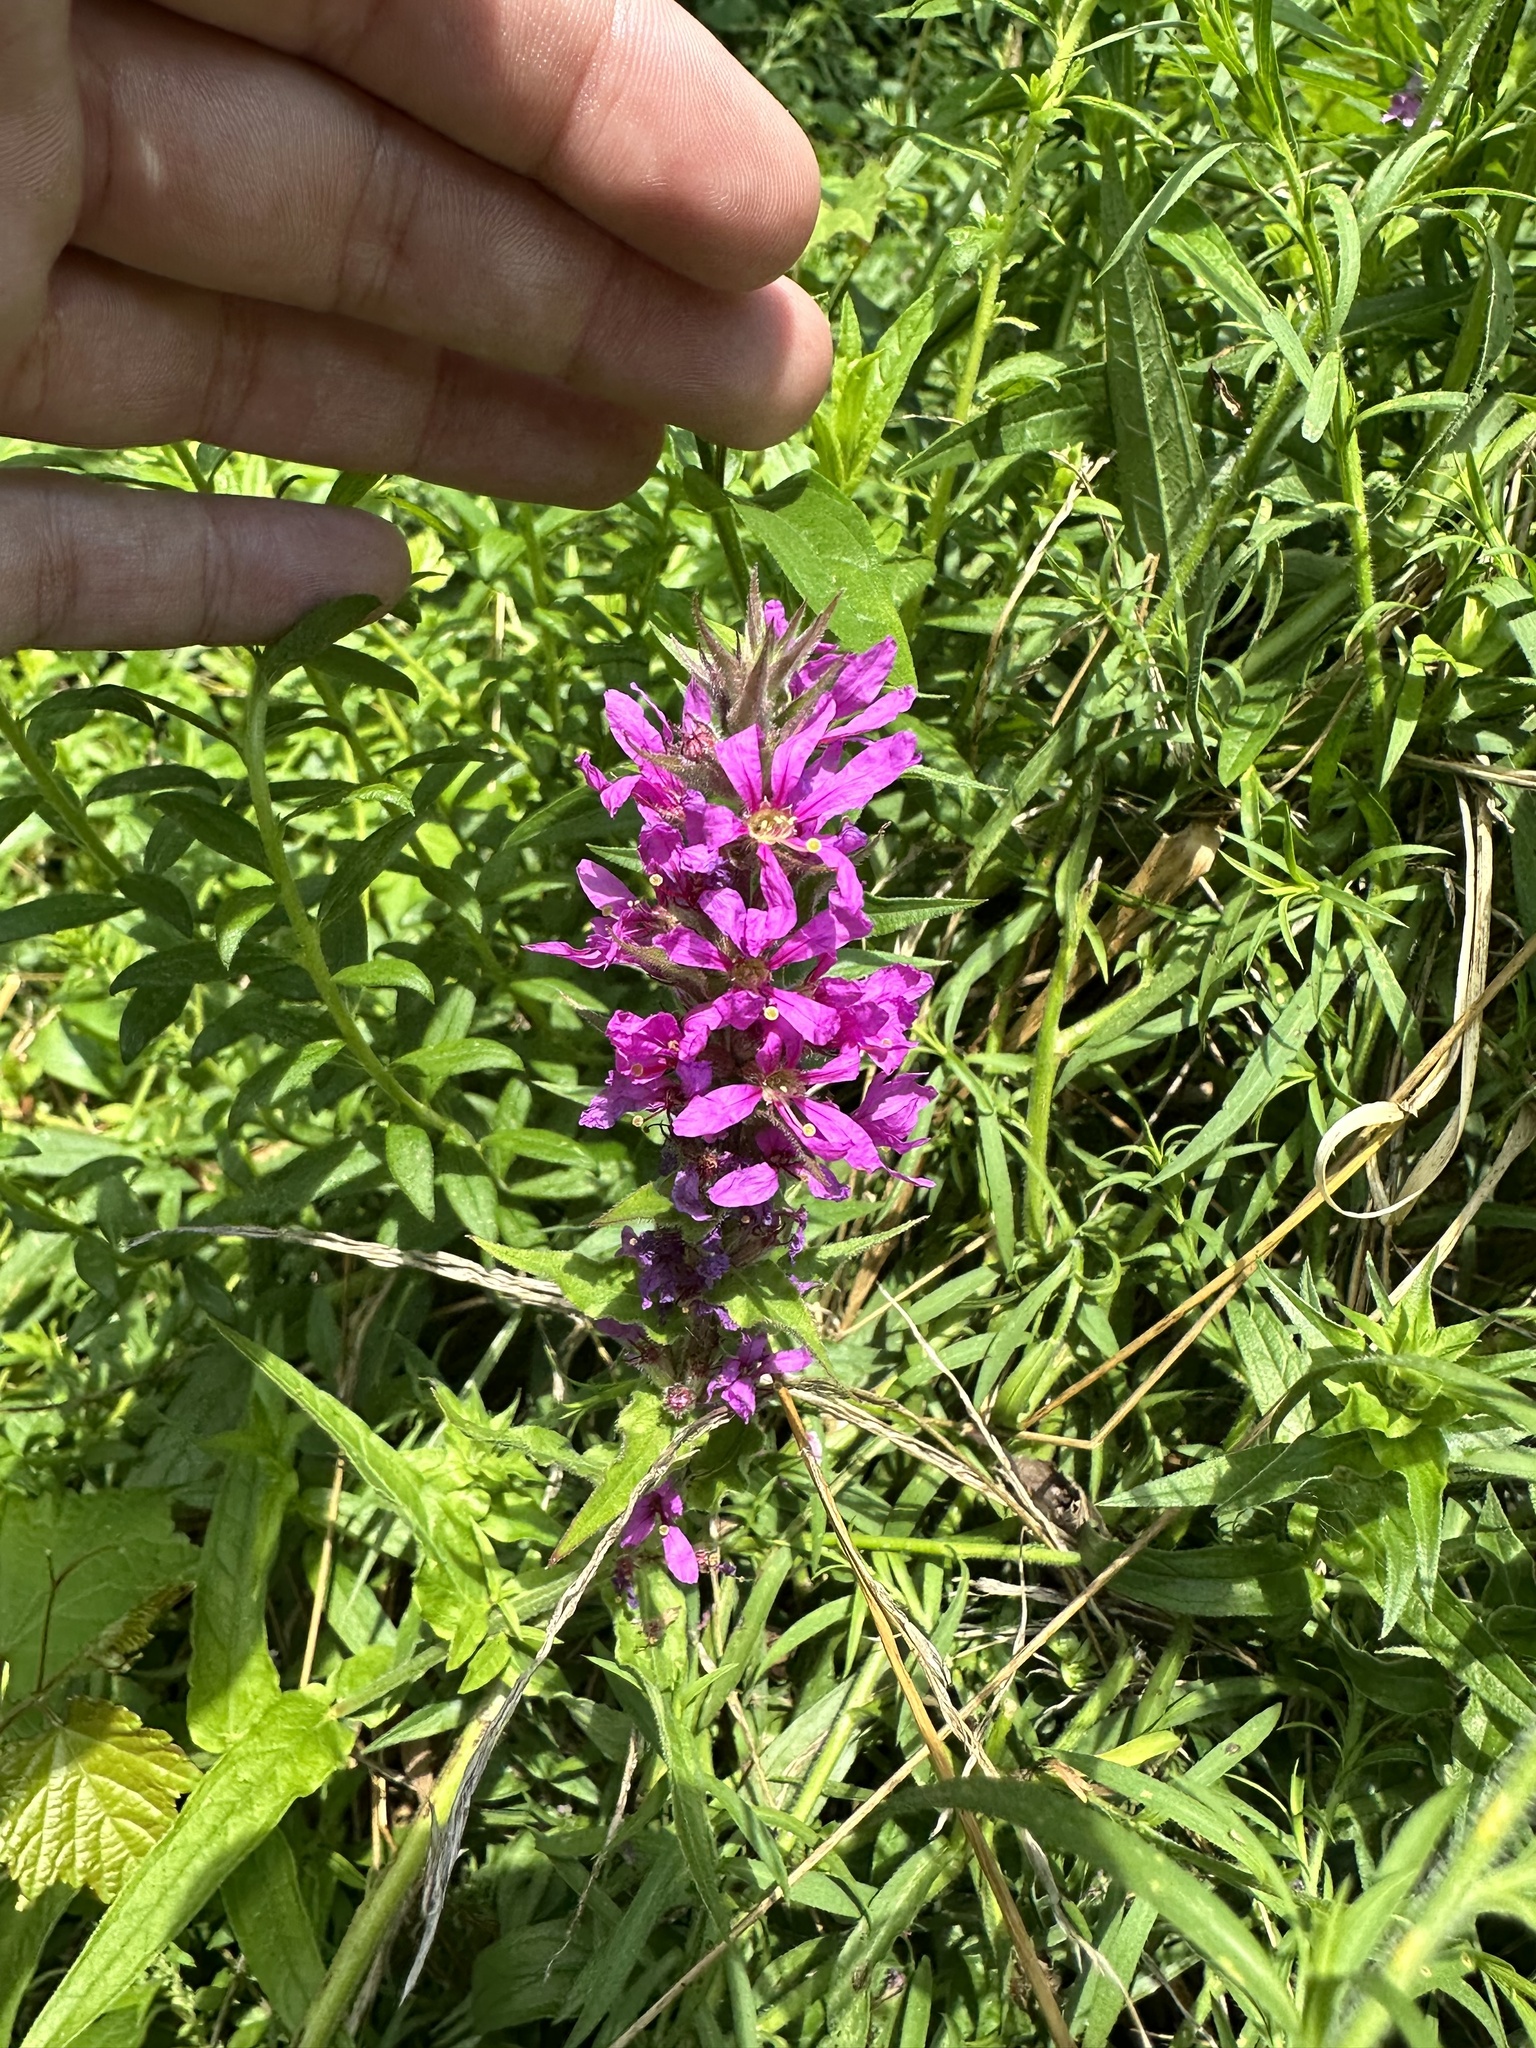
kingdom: Plantae
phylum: Tracheophyta
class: Magnoliopsida
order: Myrtales
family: Lythraceae
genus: Lythrum
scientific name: Lythrum salicaria
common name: Purple loosestrife
